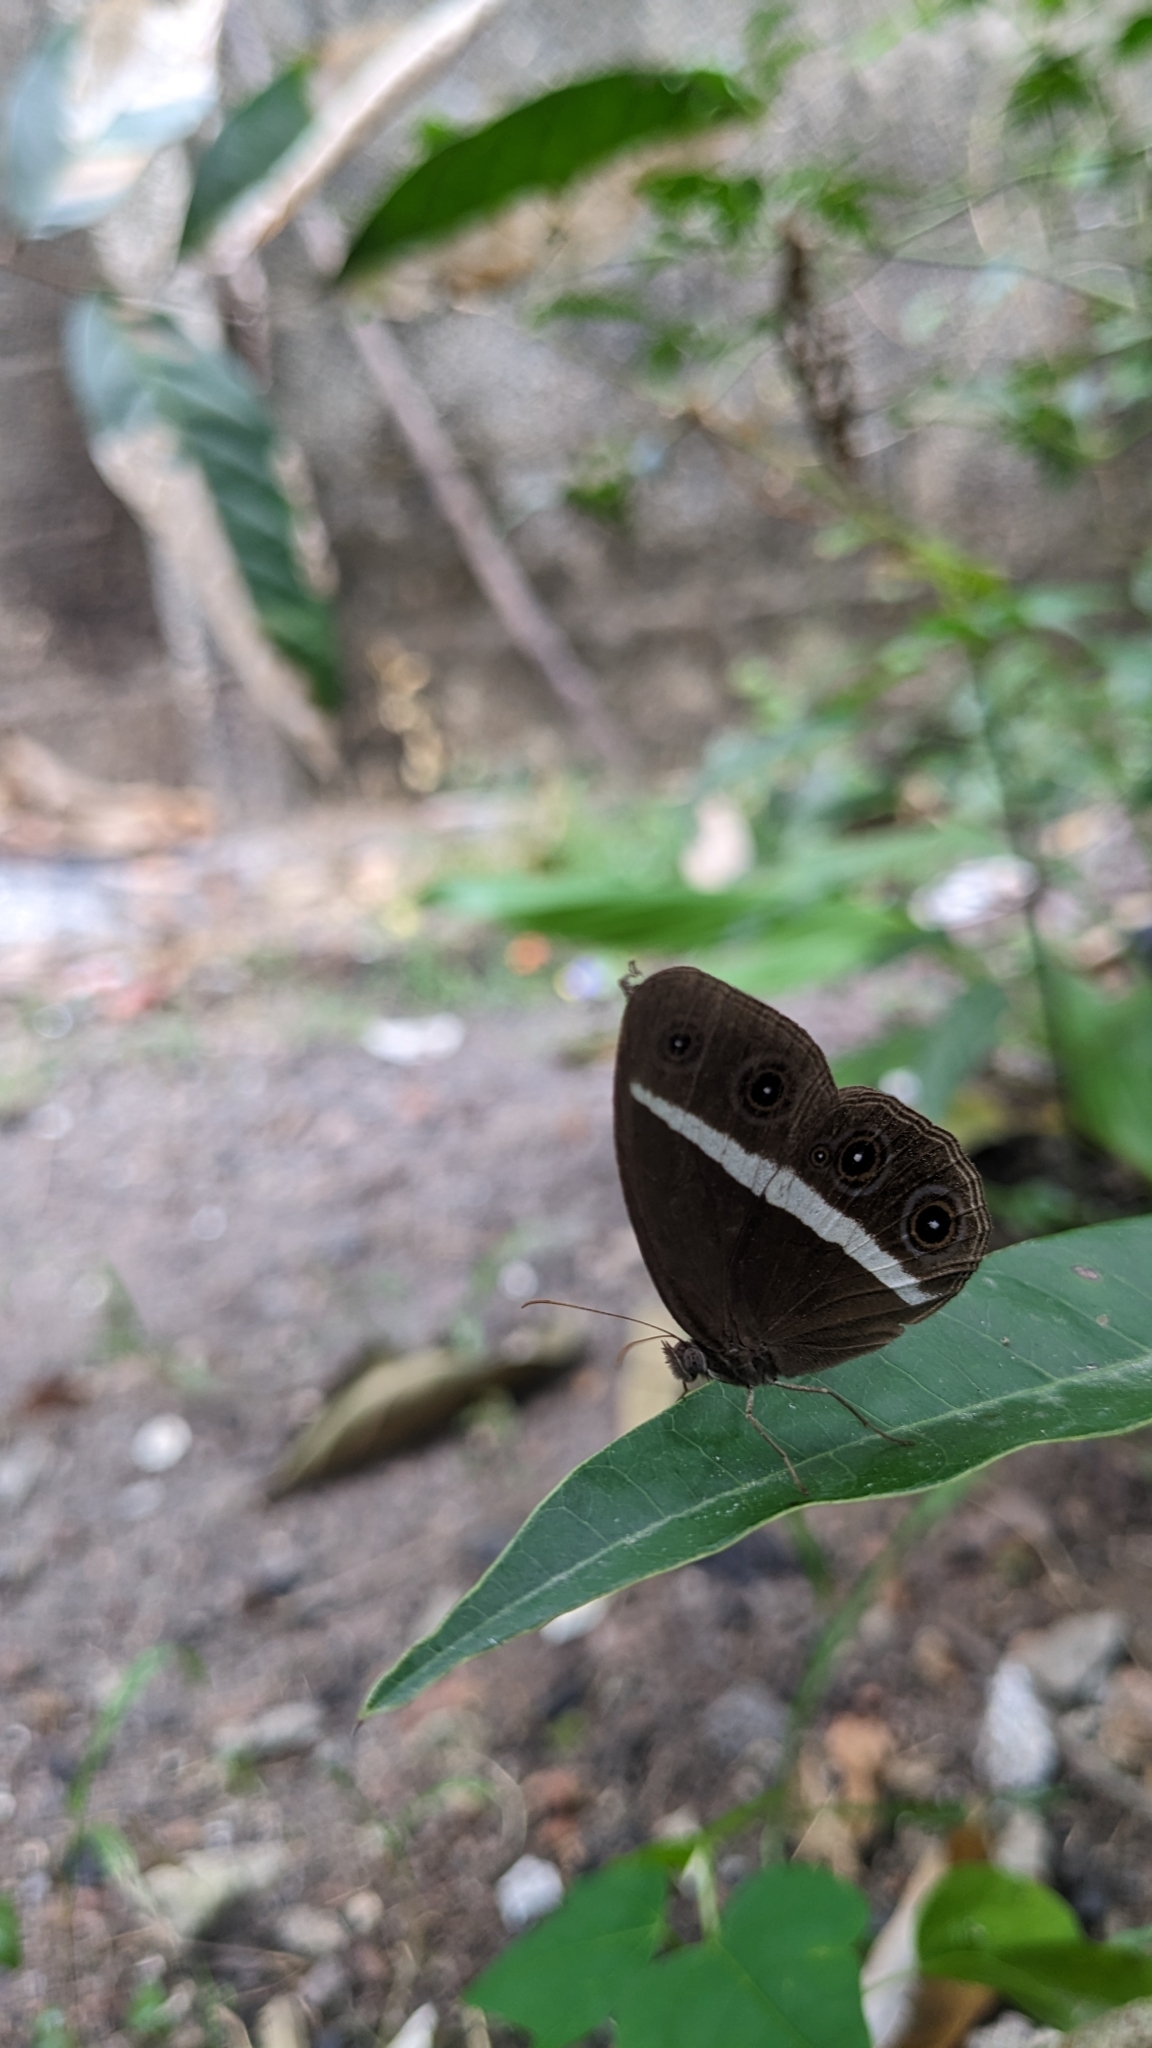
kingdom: Animalia
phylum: Arthropoda
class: Insecta
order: Lepidoptera
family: Nymphalidae
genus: Orsotriaena
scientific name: Orsotriaena medus
